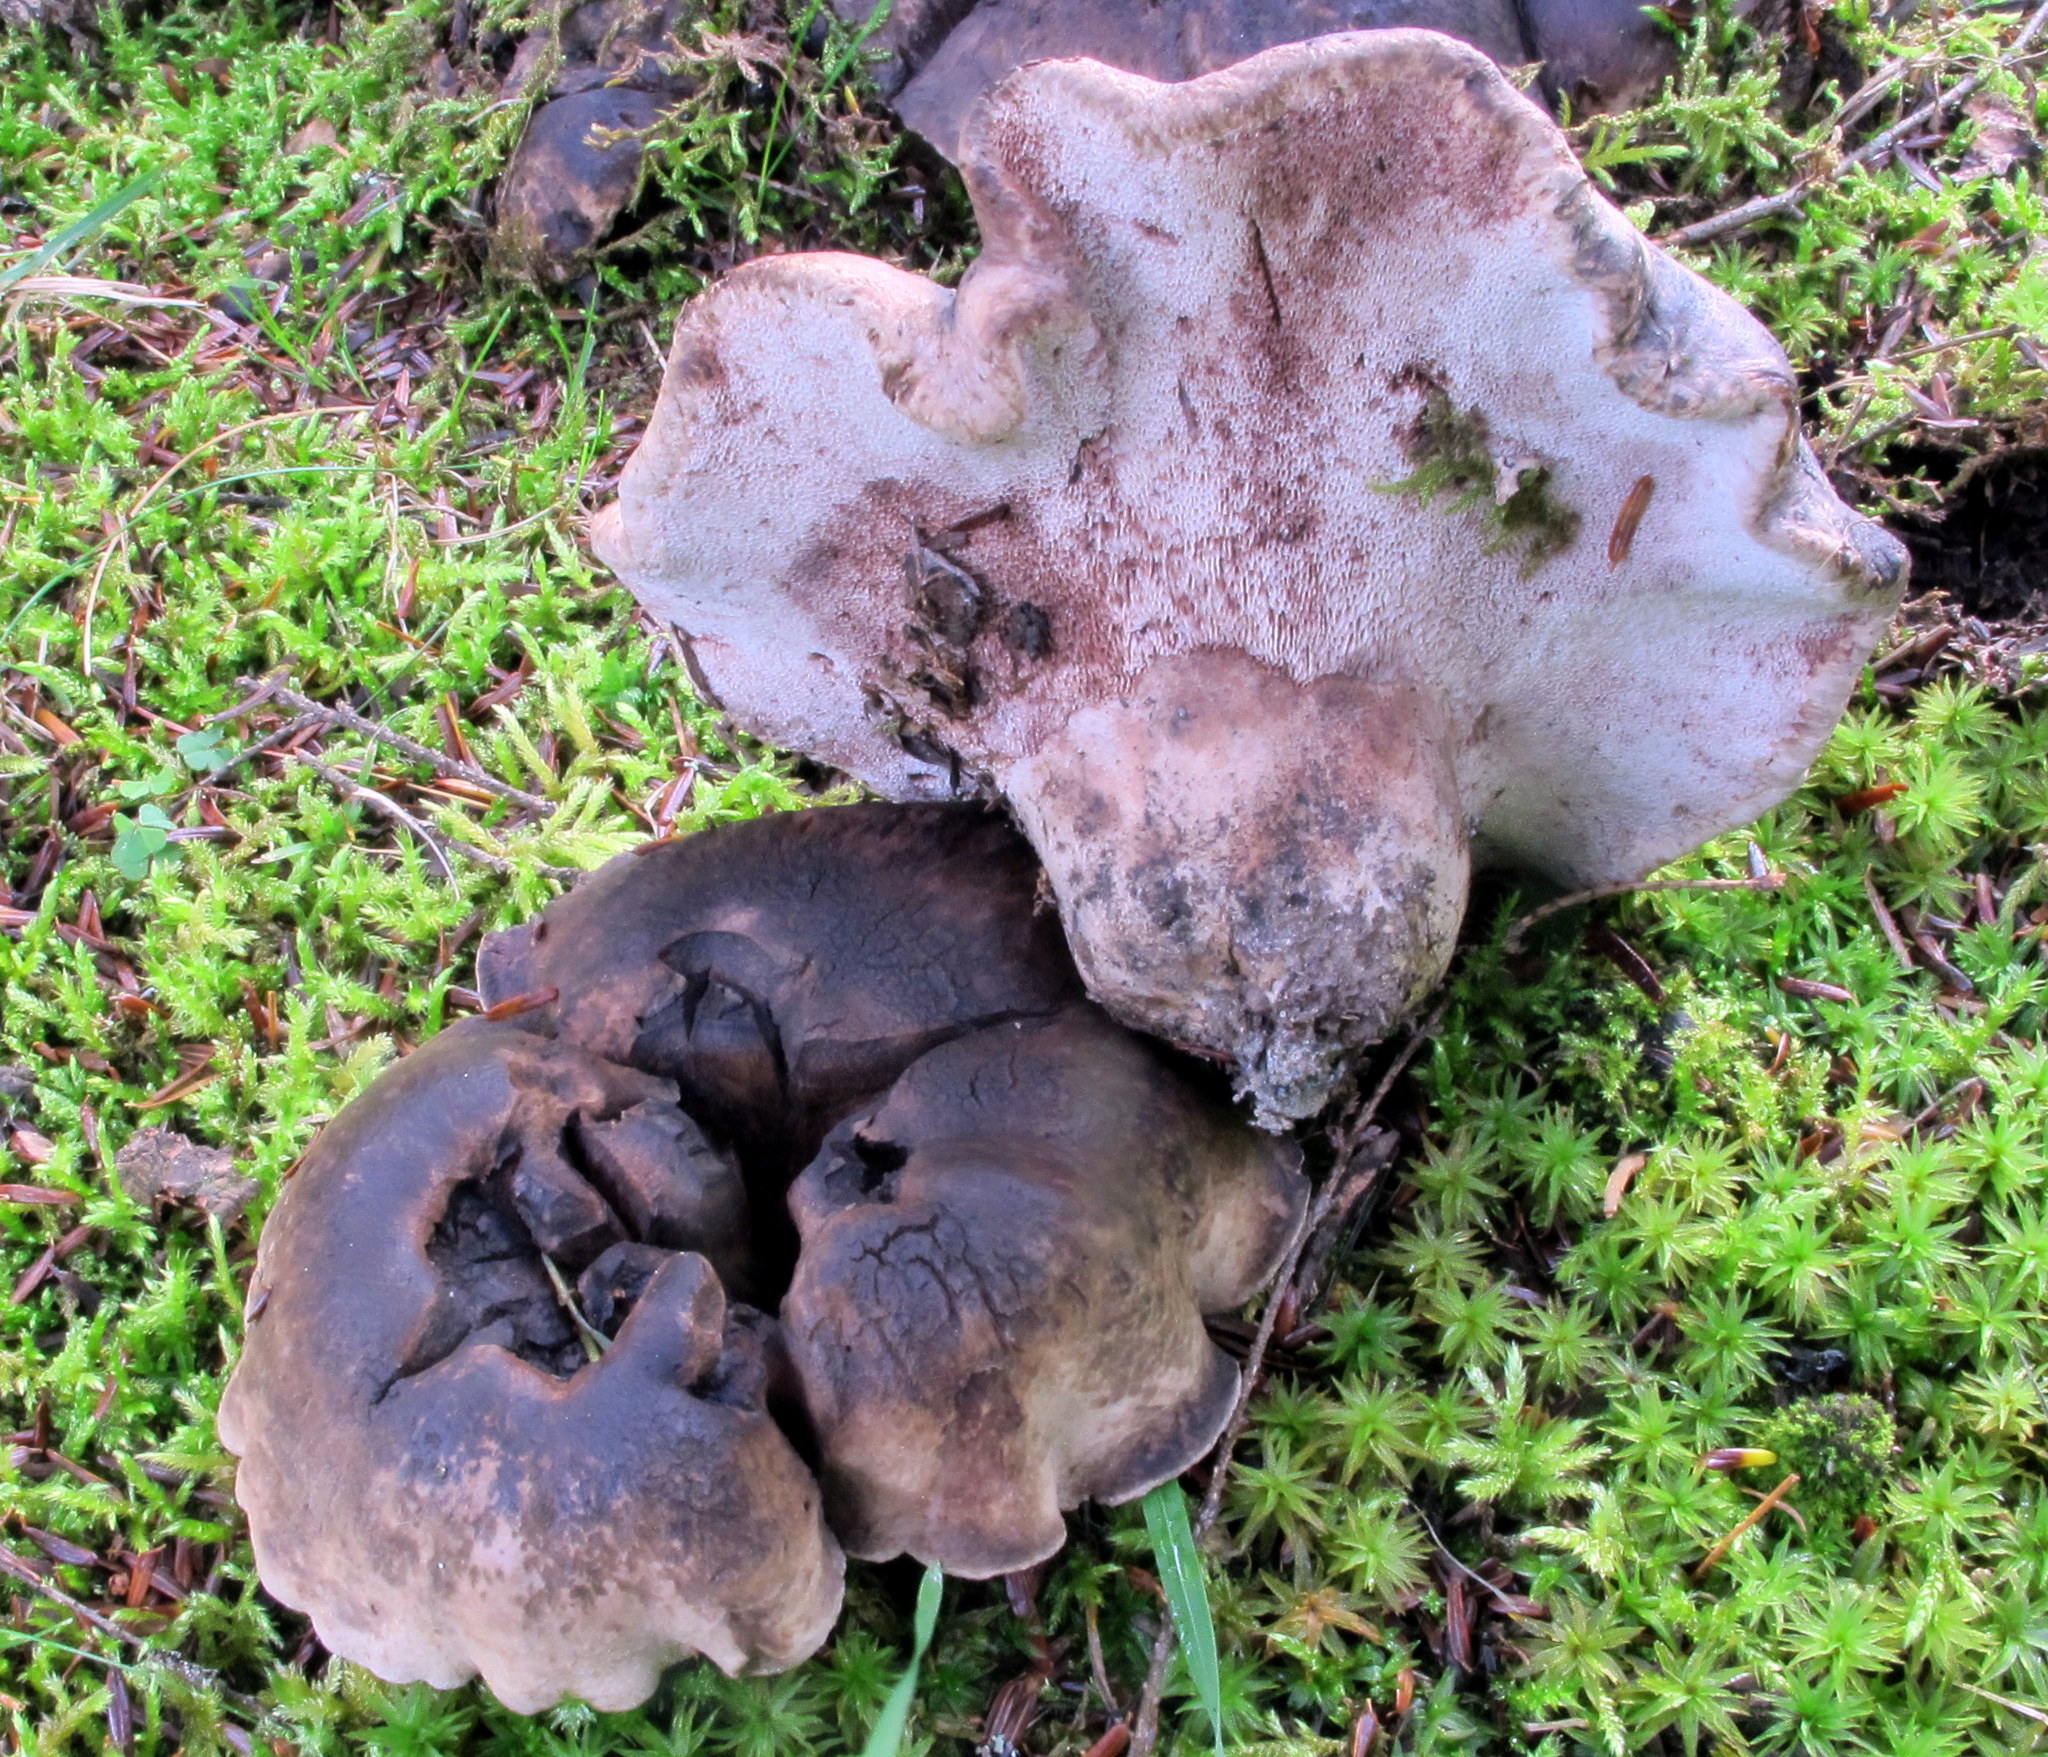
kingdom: Fungi
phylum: Basidiomycota
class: Agaricomycetes
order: Thelephorales
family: Bankeraceae
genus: Boletopsis
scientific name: Boletopsis grisea
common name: Grey falsebolete
